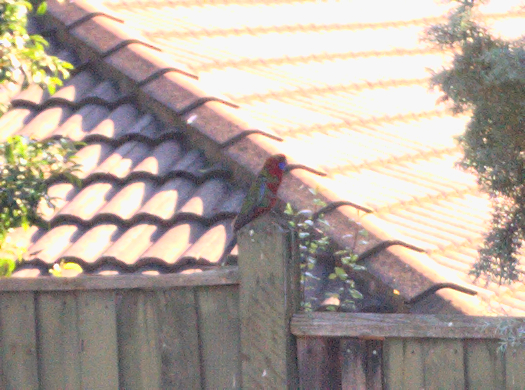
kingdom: Animalia
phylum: Chordata
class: Aves
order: Psittaciformes
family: Psittacidae
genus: Platycercus
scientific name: Platycercus elegans
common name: Crimson rosella
